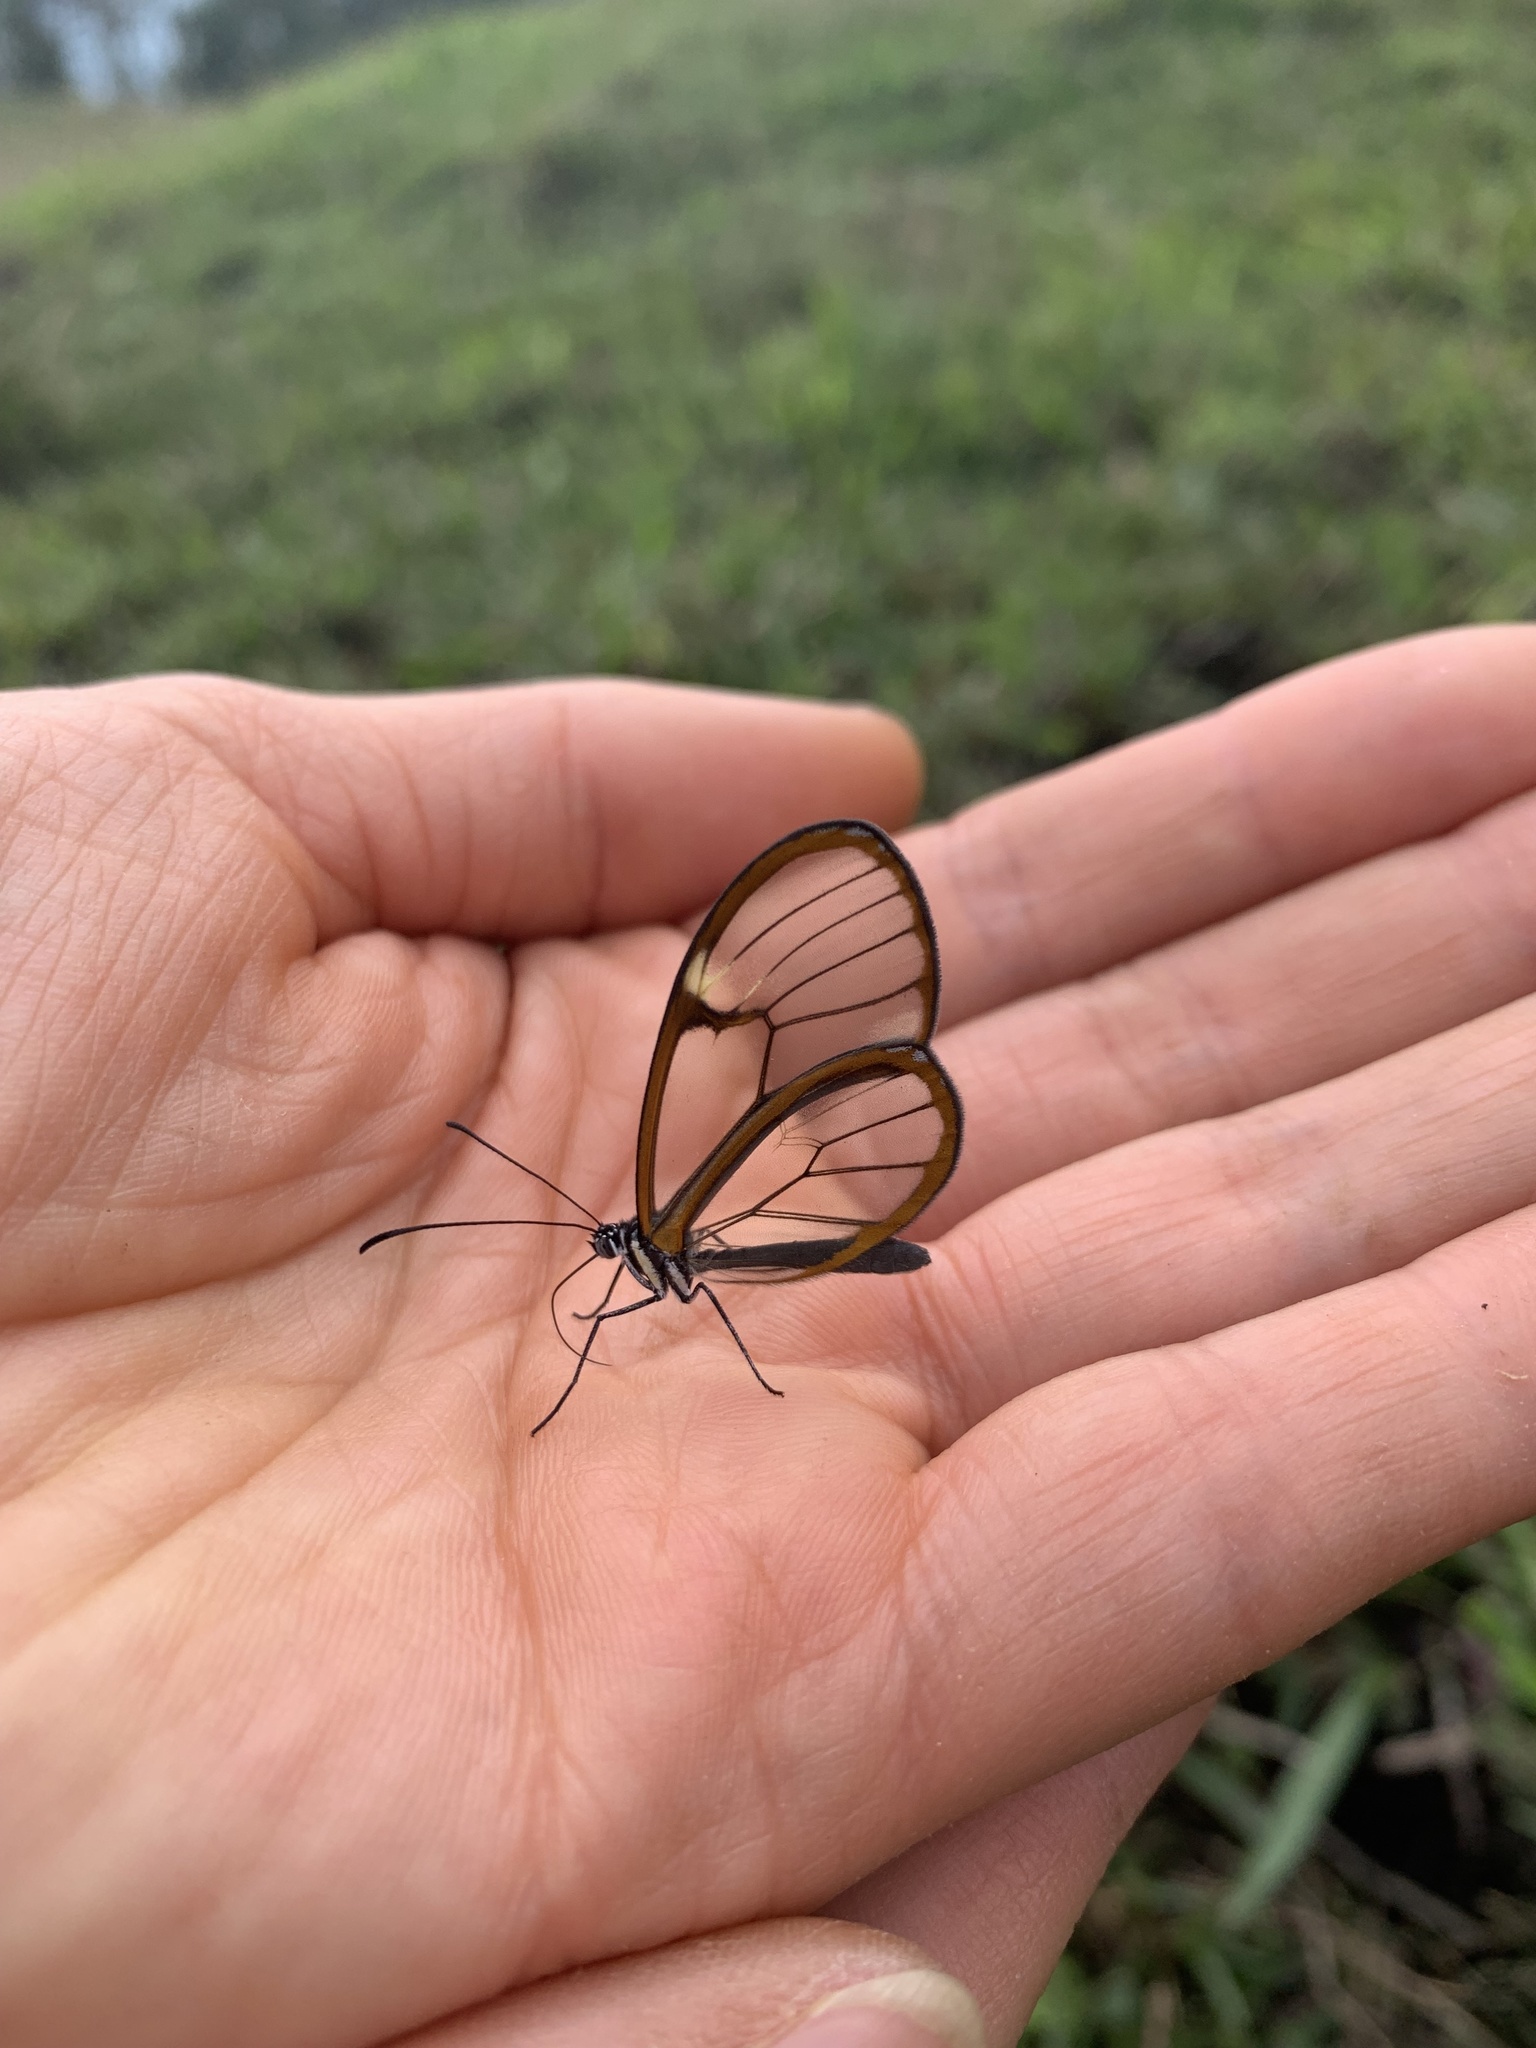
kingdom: Animalia
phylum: Arthropoda
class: Insecta
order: Lepidoptera
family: Nymphalidae
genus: Episcada
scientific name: Episcada salvinia
